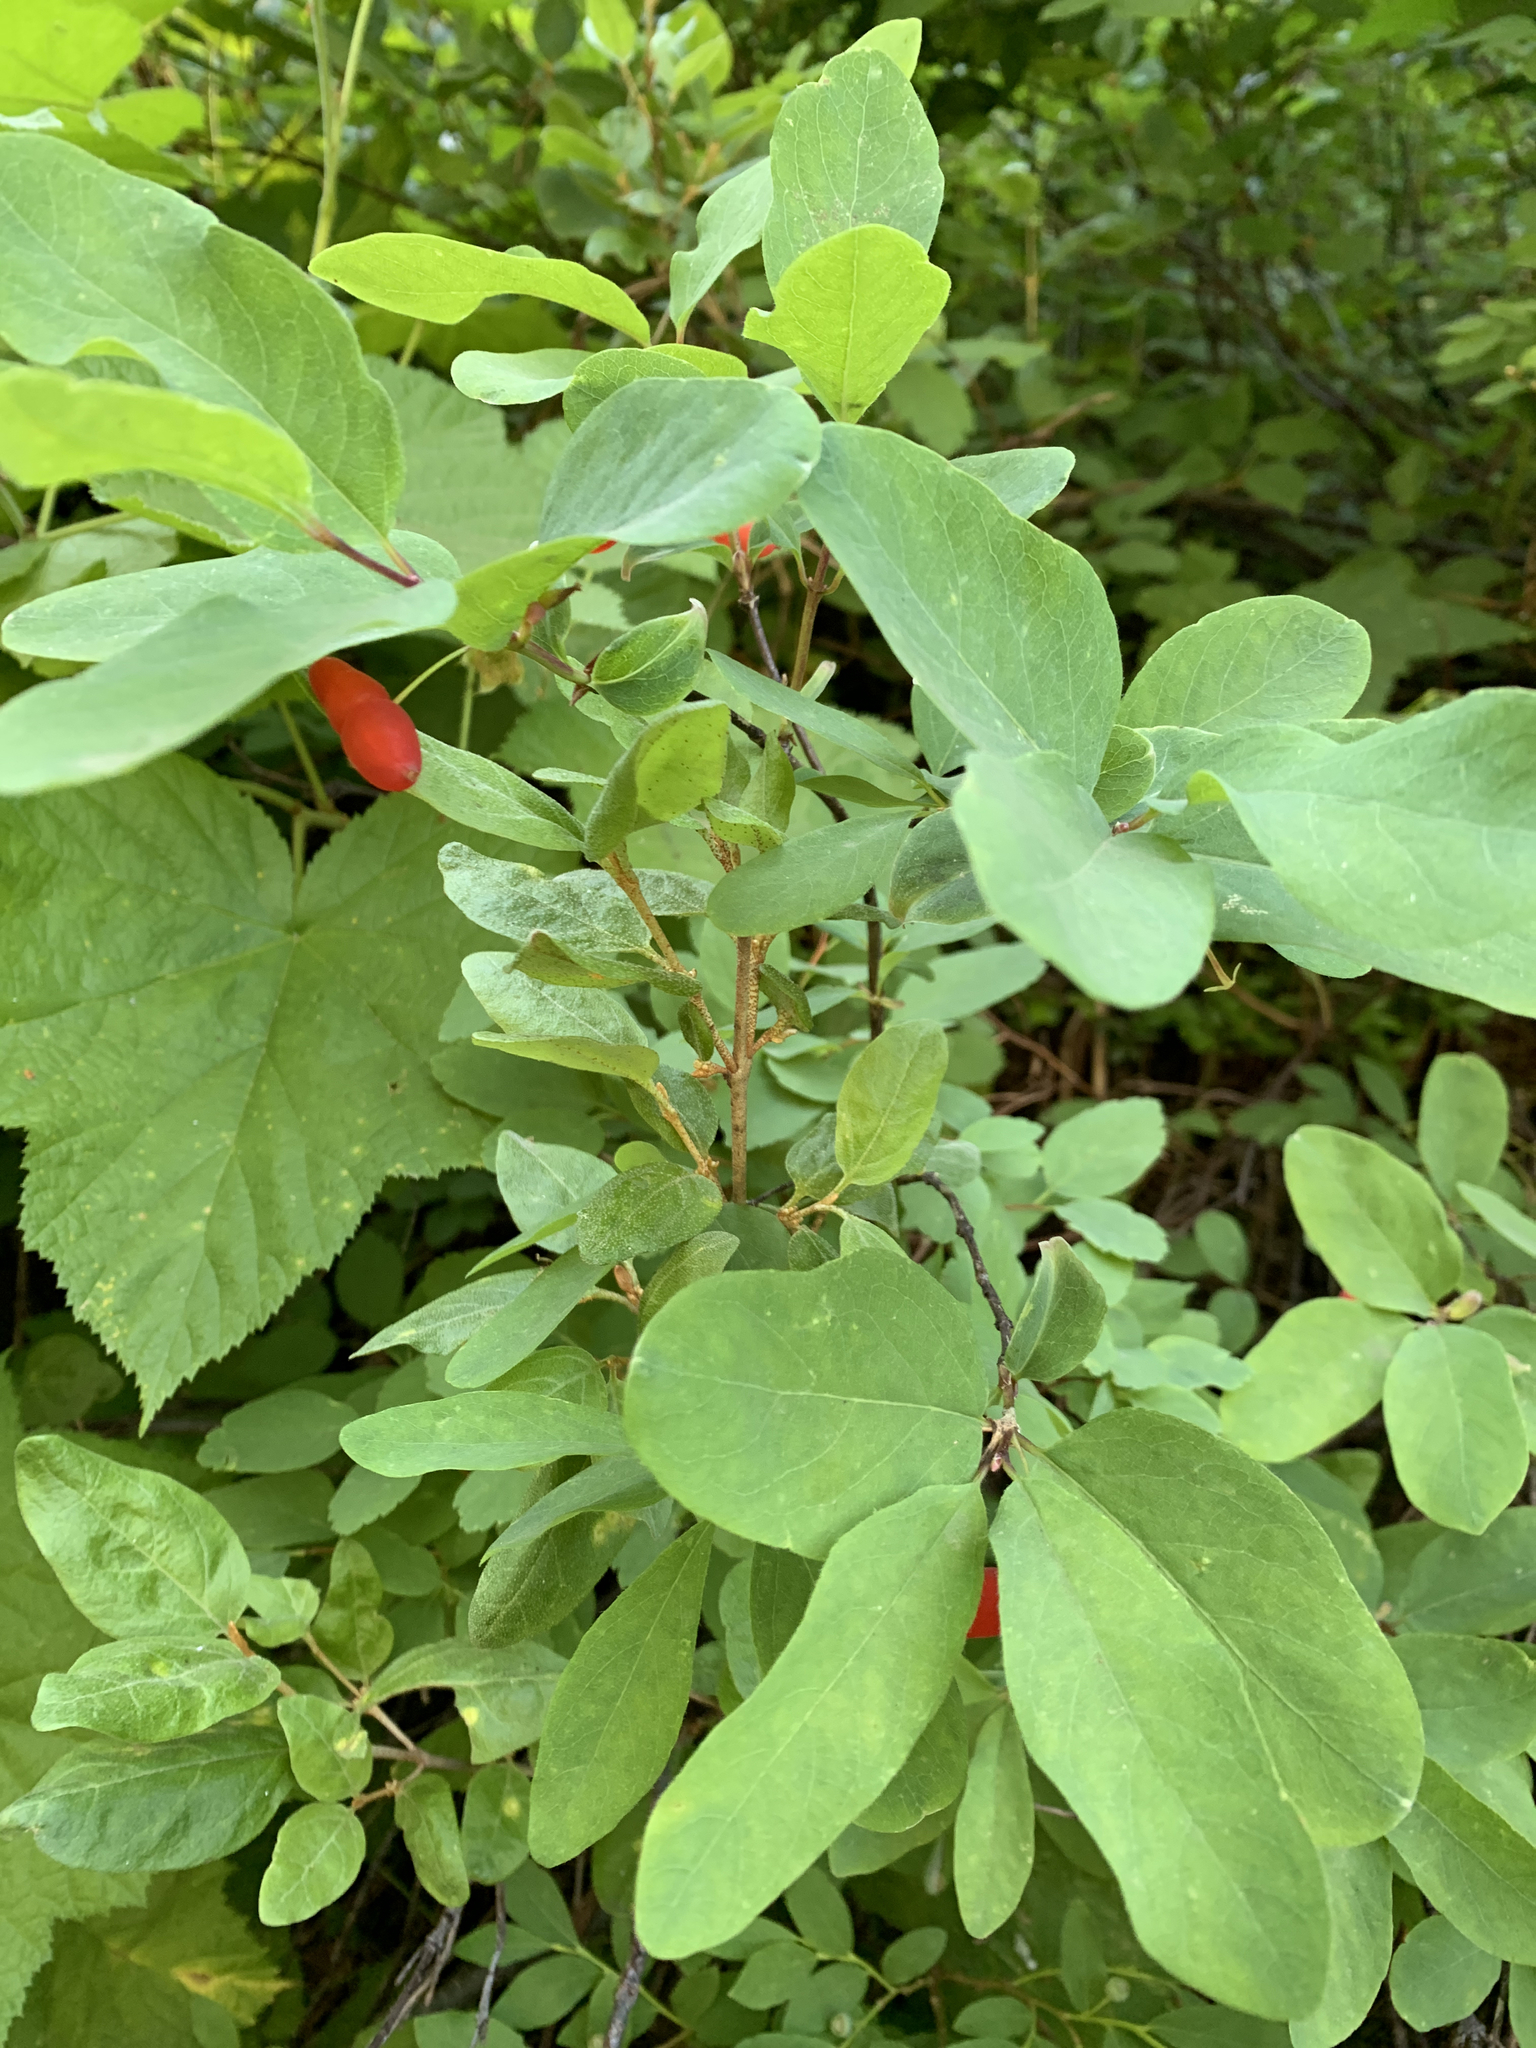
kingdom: Plantae
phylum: Tracheophyta
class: Magnoliopsida
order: Dipsacales
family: Caprifoliaceae
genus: Lonicera
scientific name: Lonicera utahensis
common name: Utah honeysuckle
